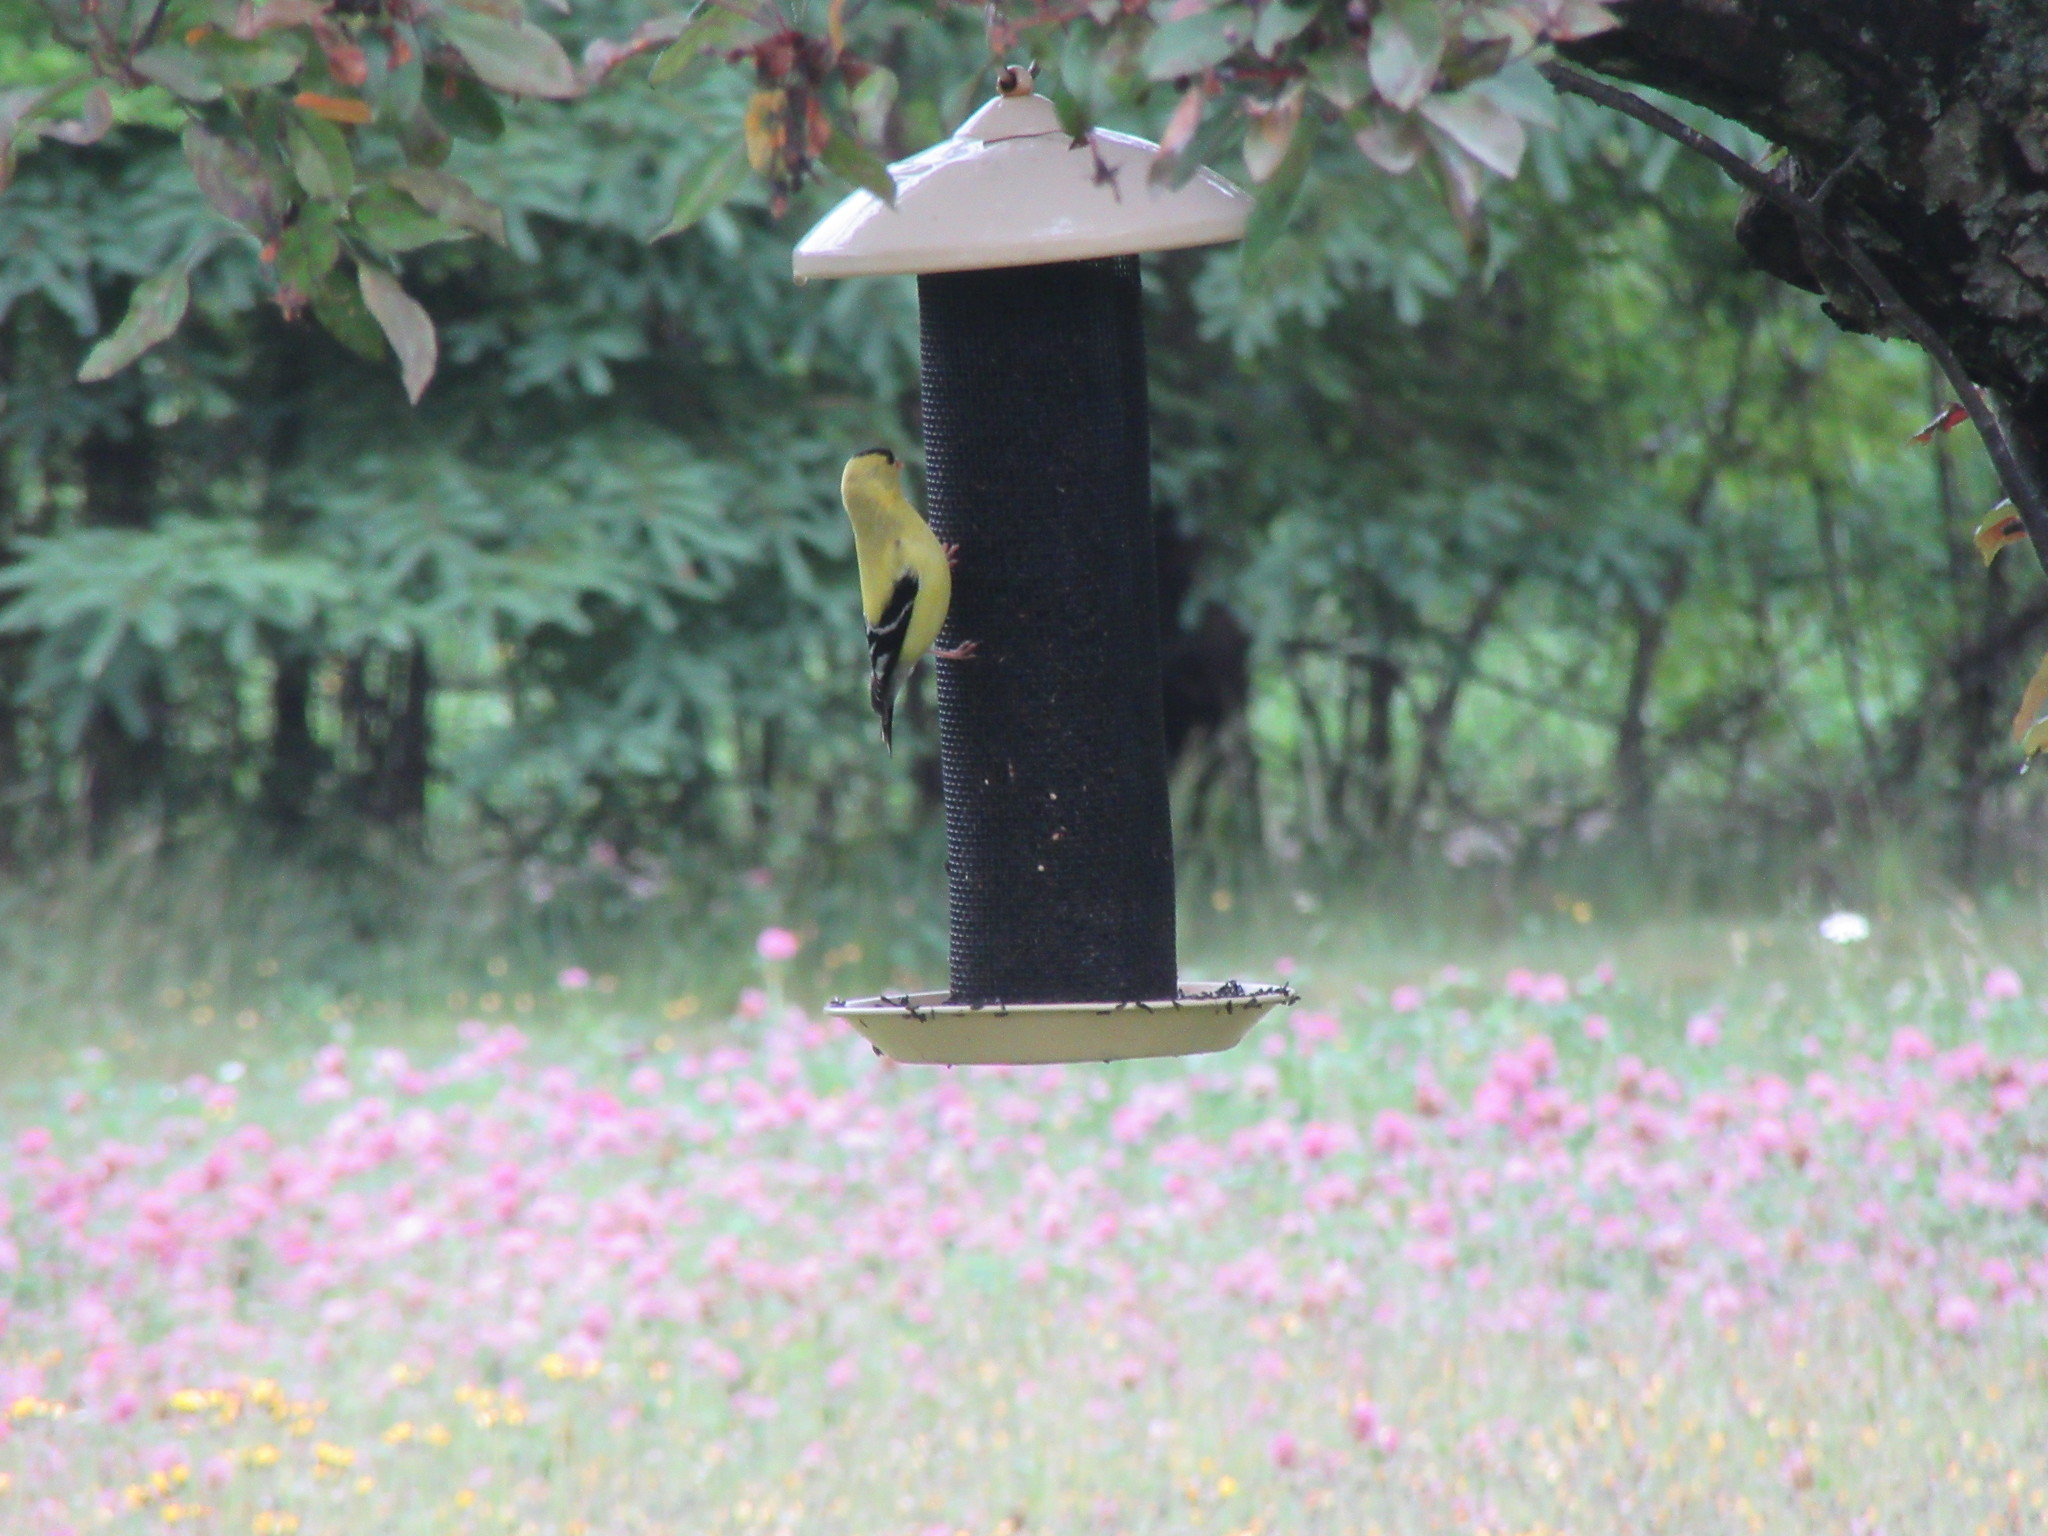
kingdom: Animalia
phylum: Chordata
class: Aves
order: Passeriformes
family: Fringillidae
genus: Spinus
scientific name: Spinus tristis
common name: American goldfinch
